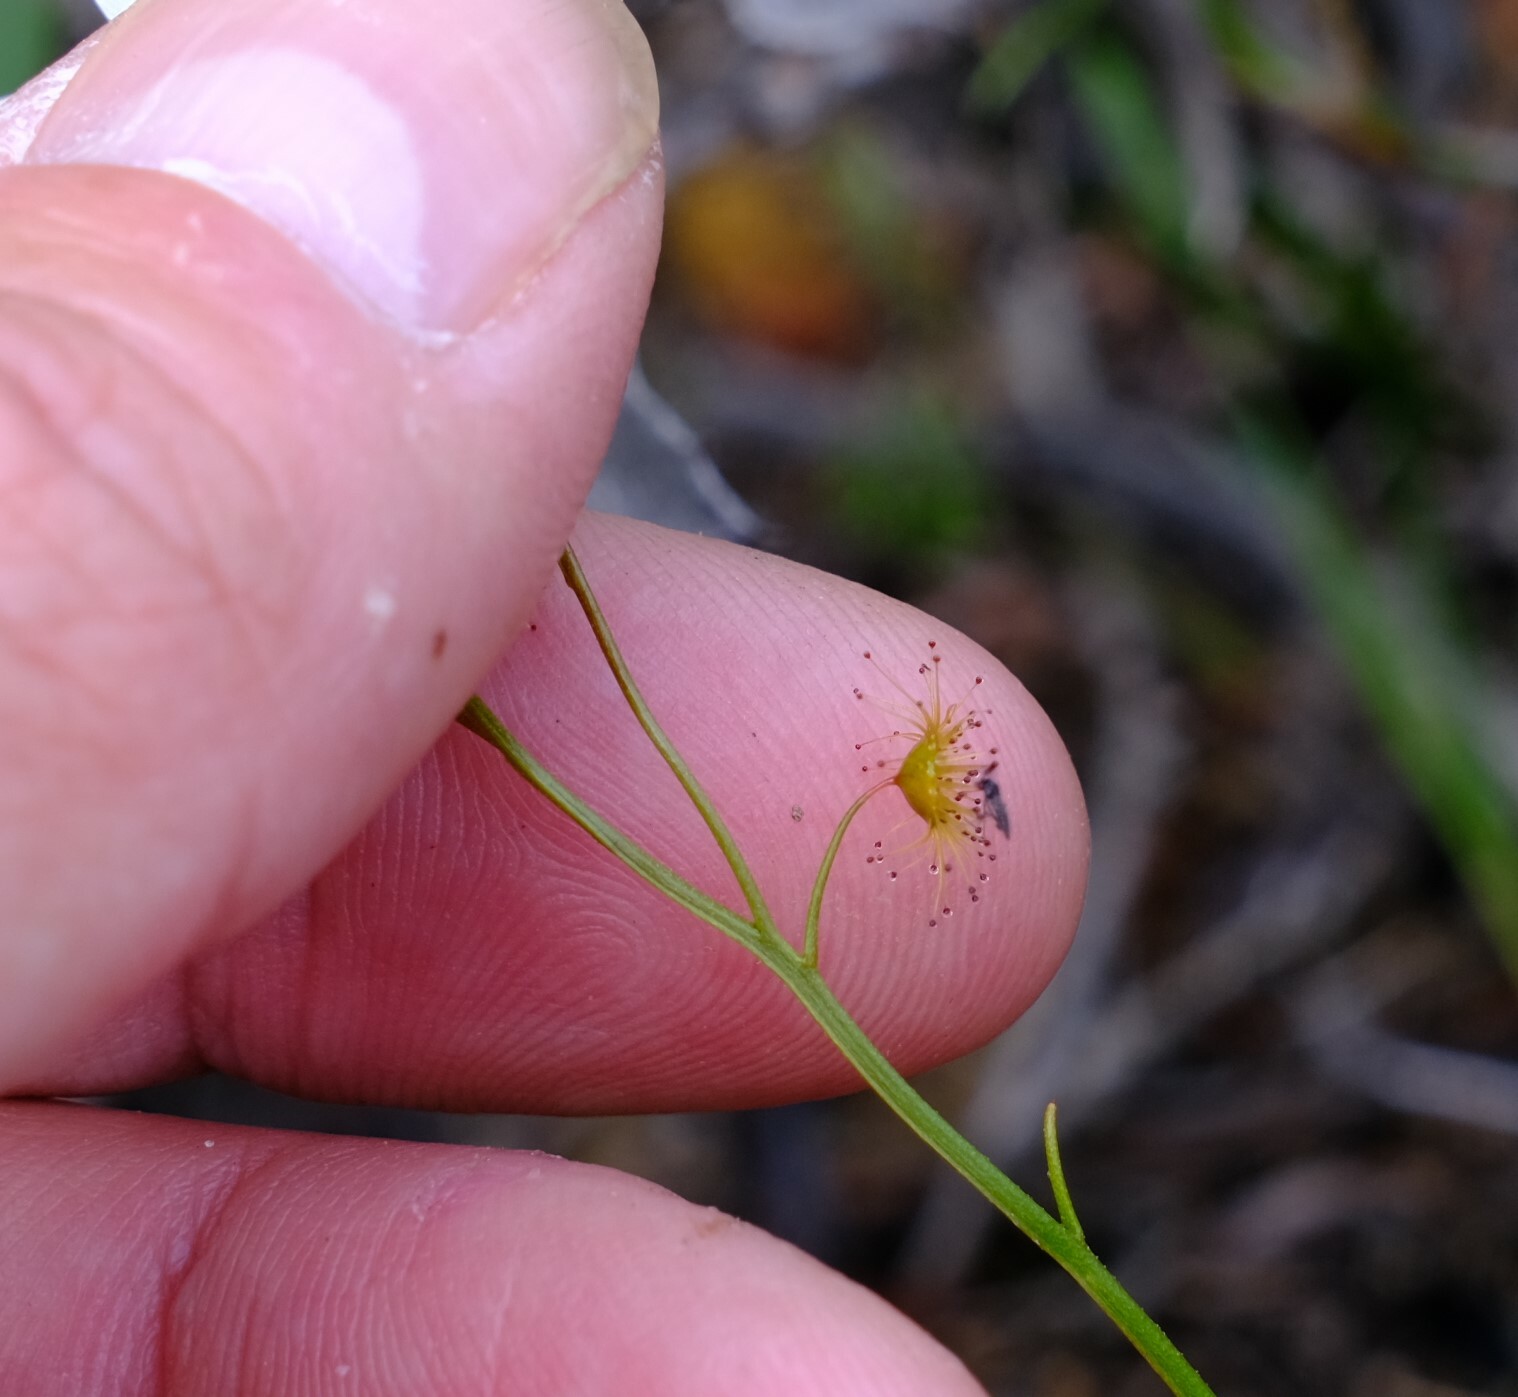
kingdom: Plantae
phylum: Tracheophyta
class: Magnoliopsida
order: Caryophyllales
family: Droseraceae
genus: Drosera
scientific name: Drosera marchantii
